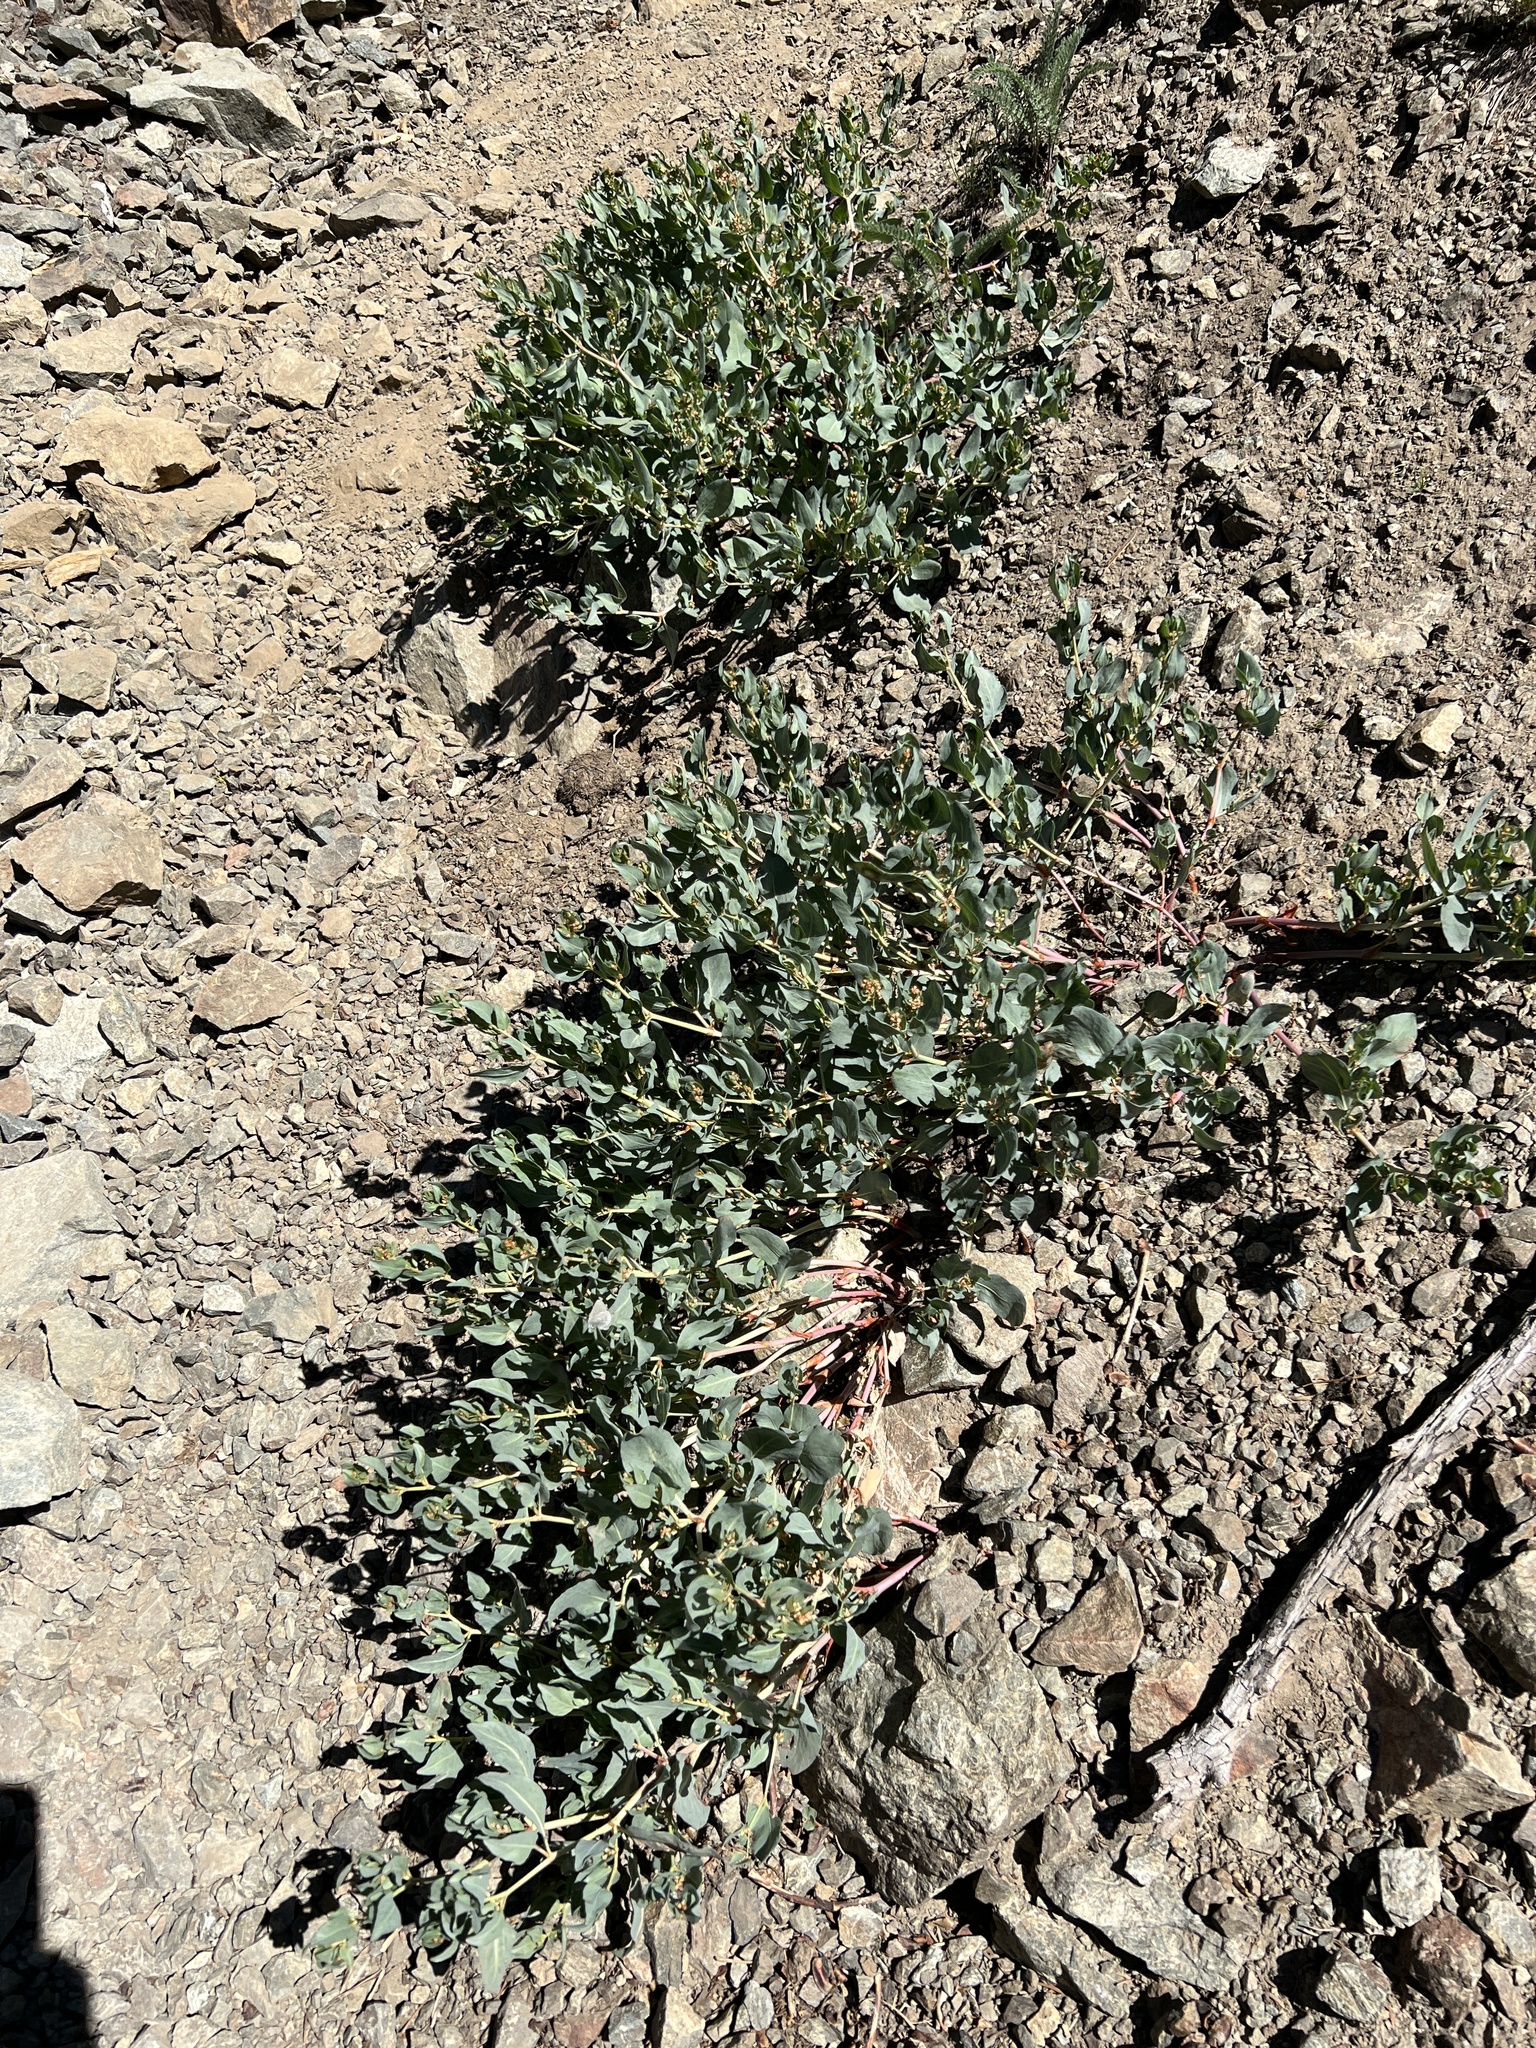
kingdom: Plantae
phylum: Tracheophyta
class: Magnoliopsida
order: Caryophyllales
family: Polygonaceae
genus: Koenigia
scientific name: Koenigia davisiae
